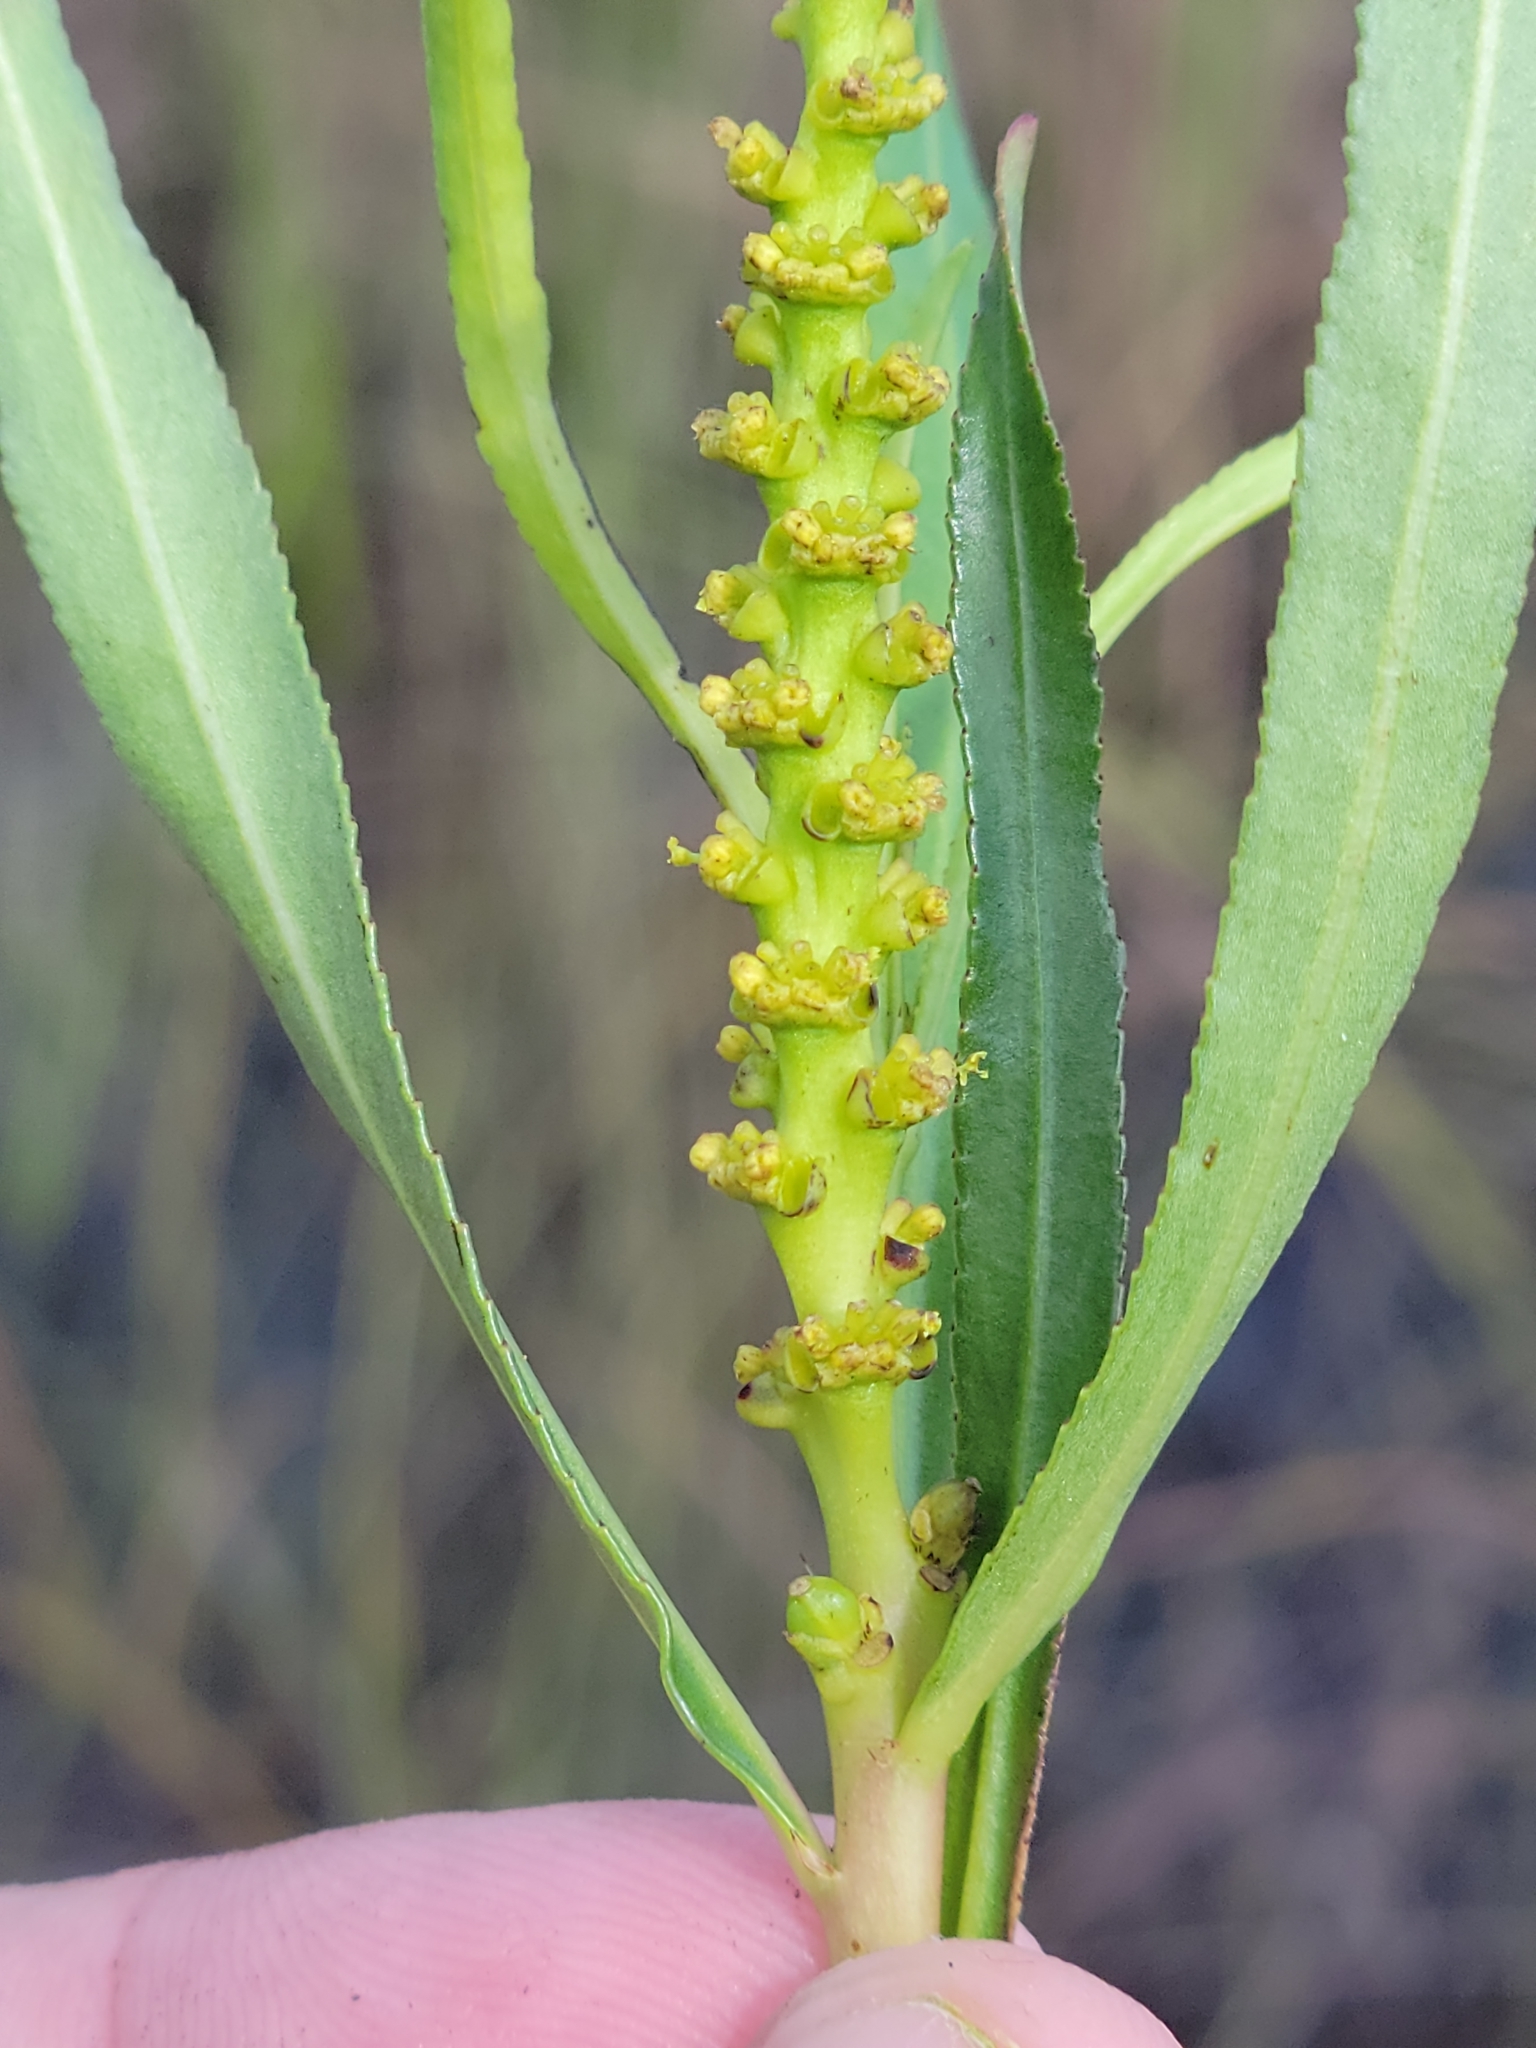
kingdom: Plantae
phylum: Tracheophyta
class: Magnoliopsida
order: Malpighiales
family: Euphorbiaceae
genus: Stillingia
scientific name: Stillingia sylvatica
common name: Queen's-delight
